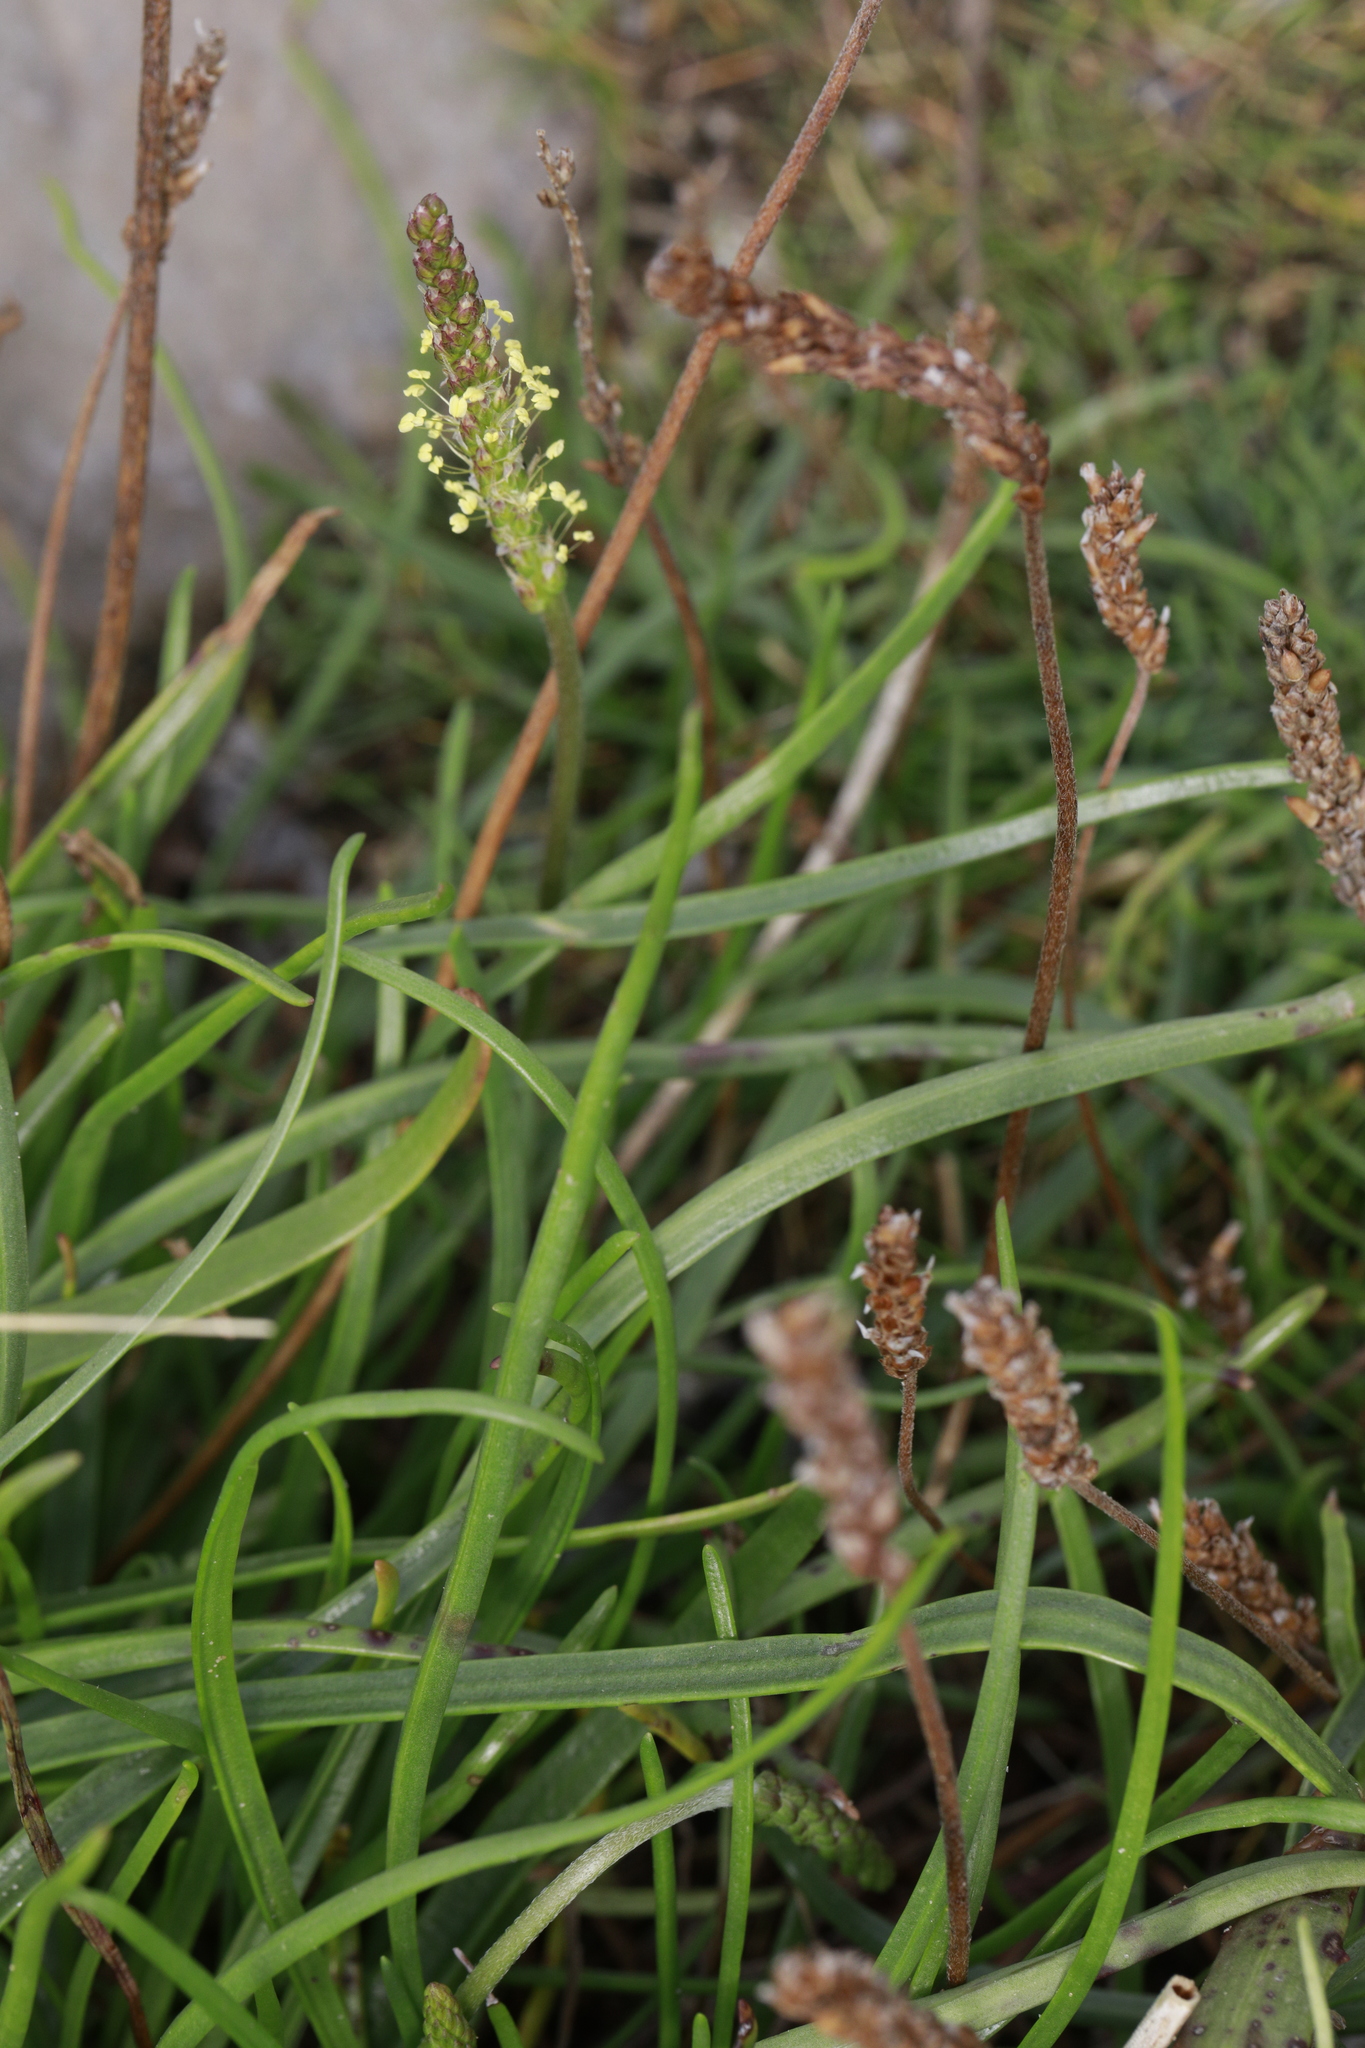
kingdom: Plantae
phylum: Tracheophyta
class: Magnoliopsida
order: Lamiales
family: Plantaginaceae
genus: Plantago
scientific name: Plantago maritima
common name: Sea plantain
